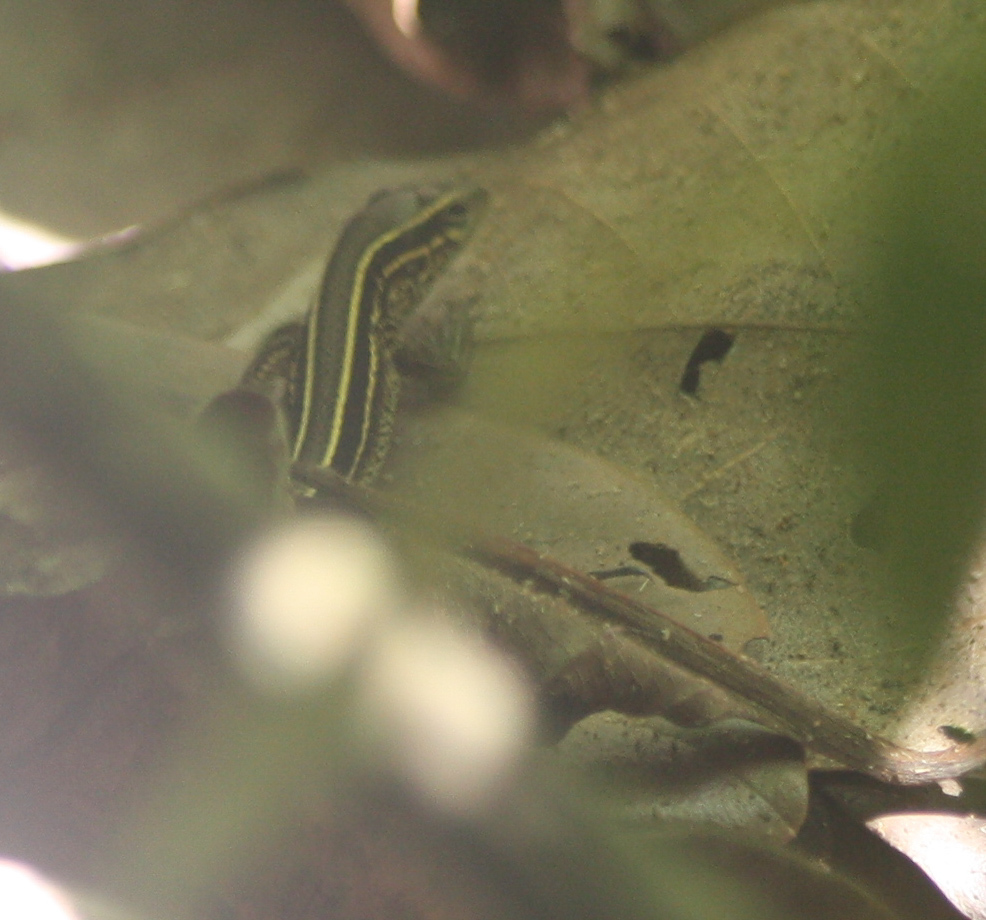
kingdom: Animalia
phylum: Chordata
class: Squamata
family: Teiidae
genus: Holcosus
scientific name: Holcosus quadrilineatus
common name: Four-lined ameiva
